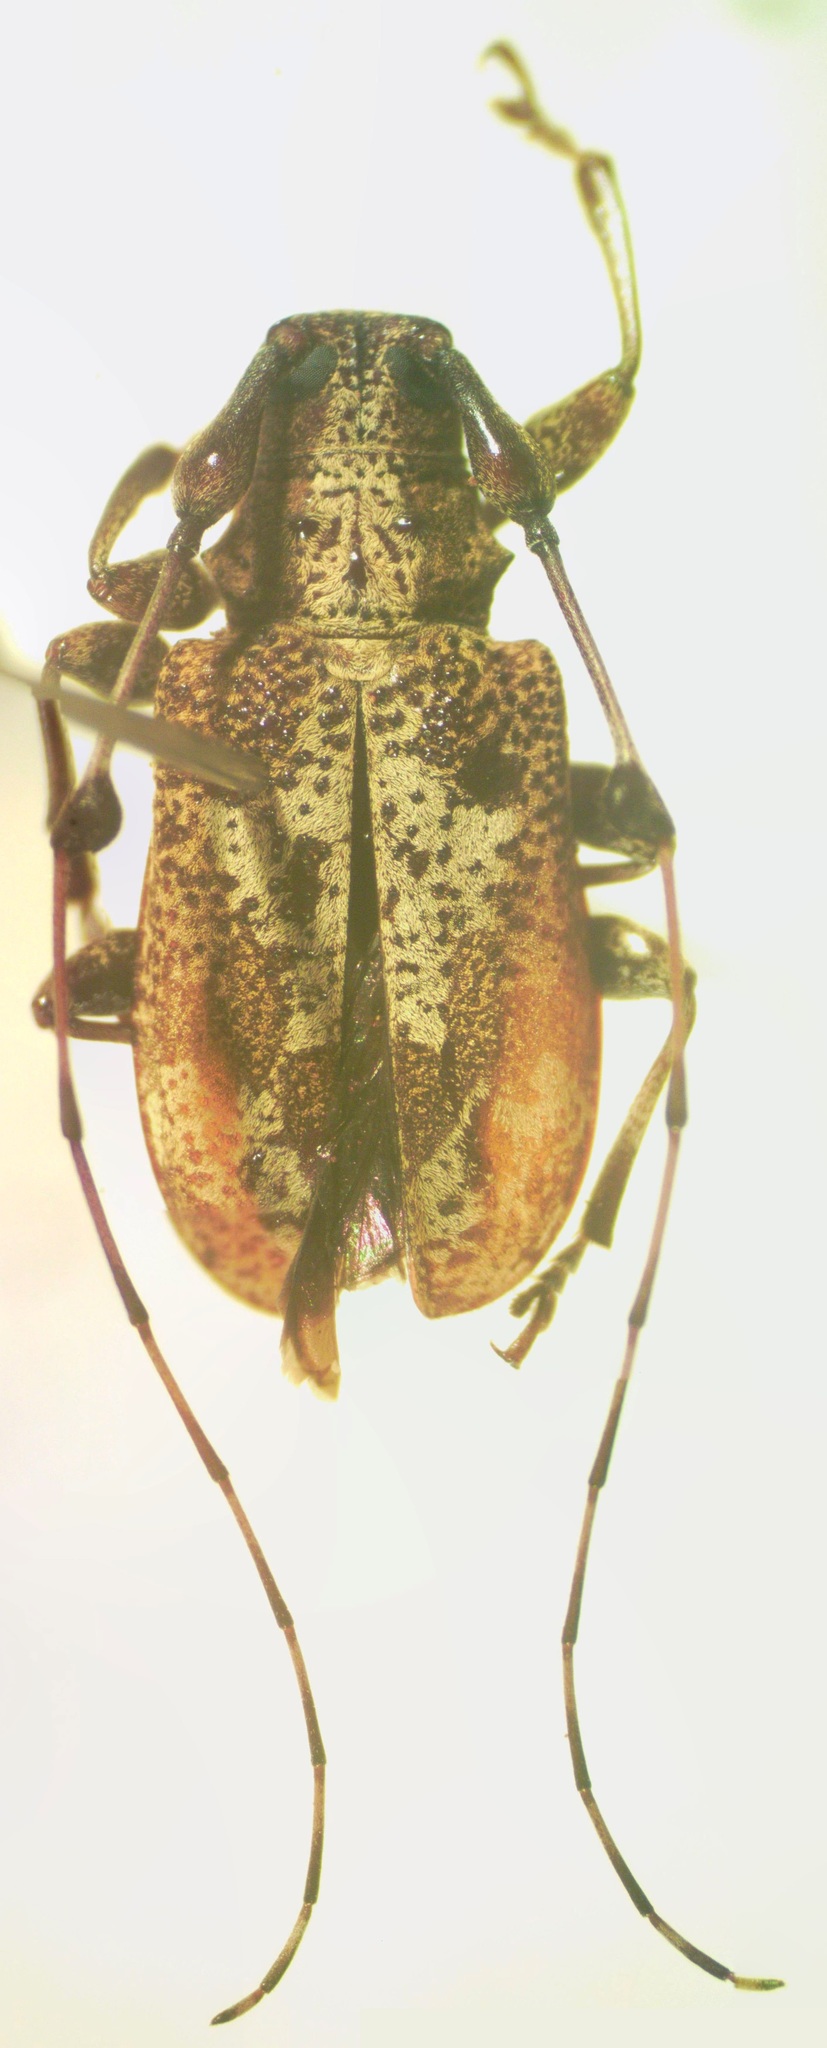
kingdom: Animalia
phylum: Arthropoda
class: Insecta
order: Coleoptera
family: Cerambycidae
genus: Caciomorpha
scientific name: Caciomorpha palliata
